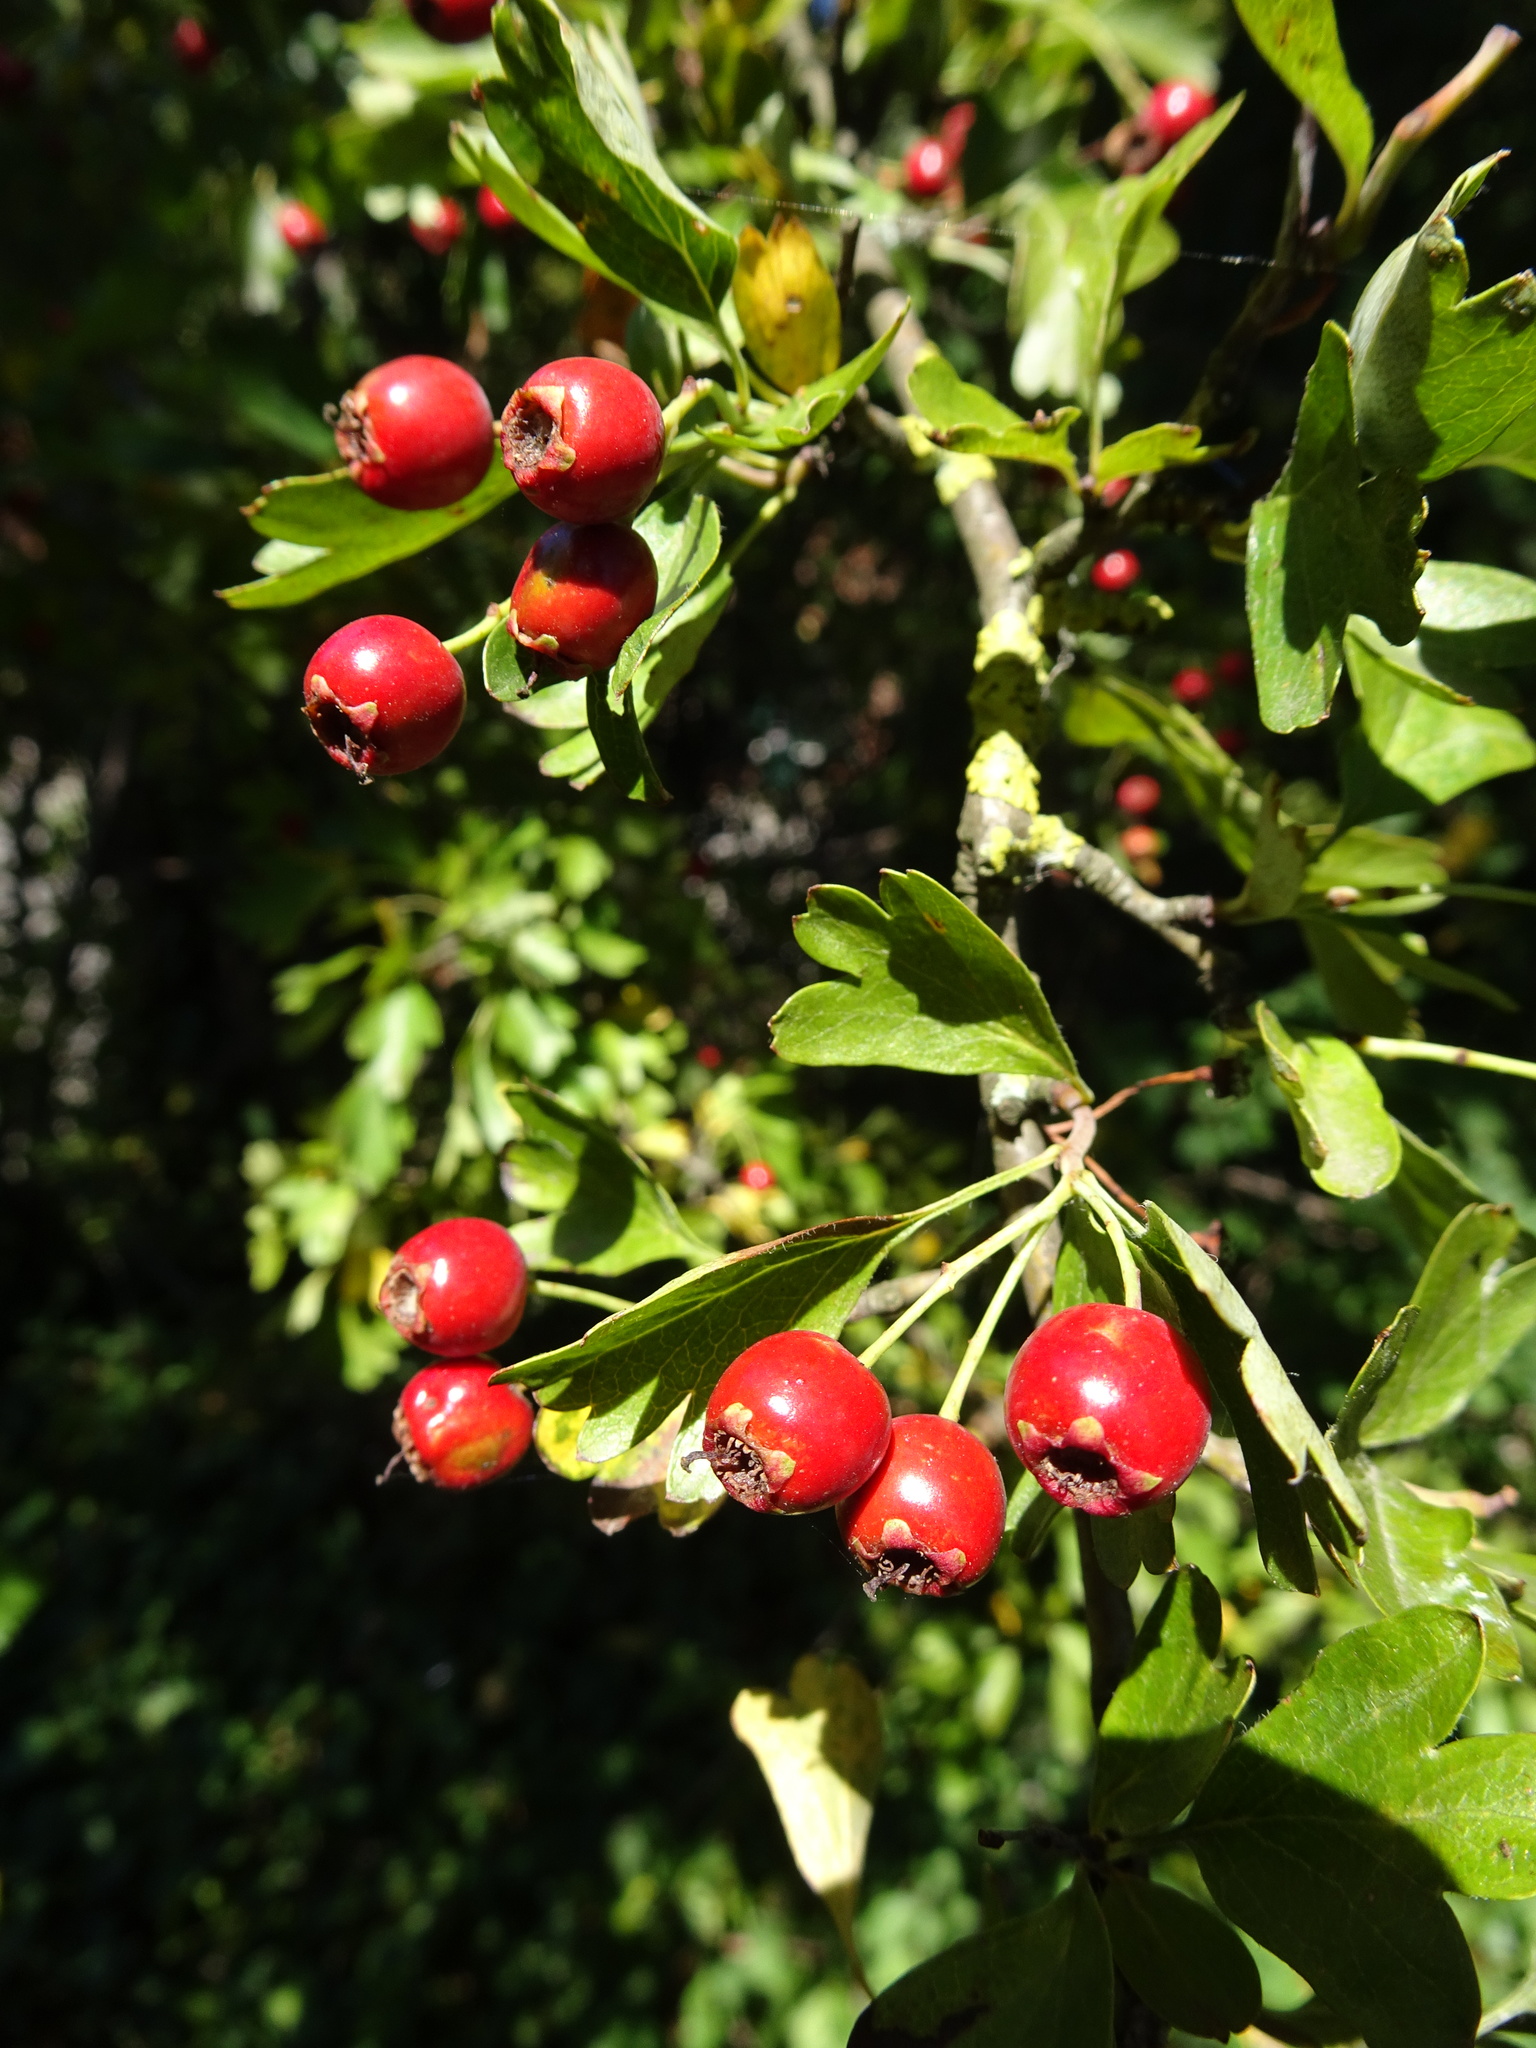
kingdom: Plantae
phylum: Tracheophyta
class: Magnoliopsida
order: Rosales
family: Rosaceae
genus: Crataegus
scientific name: Crataegus monogyna
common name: Hawthorn
